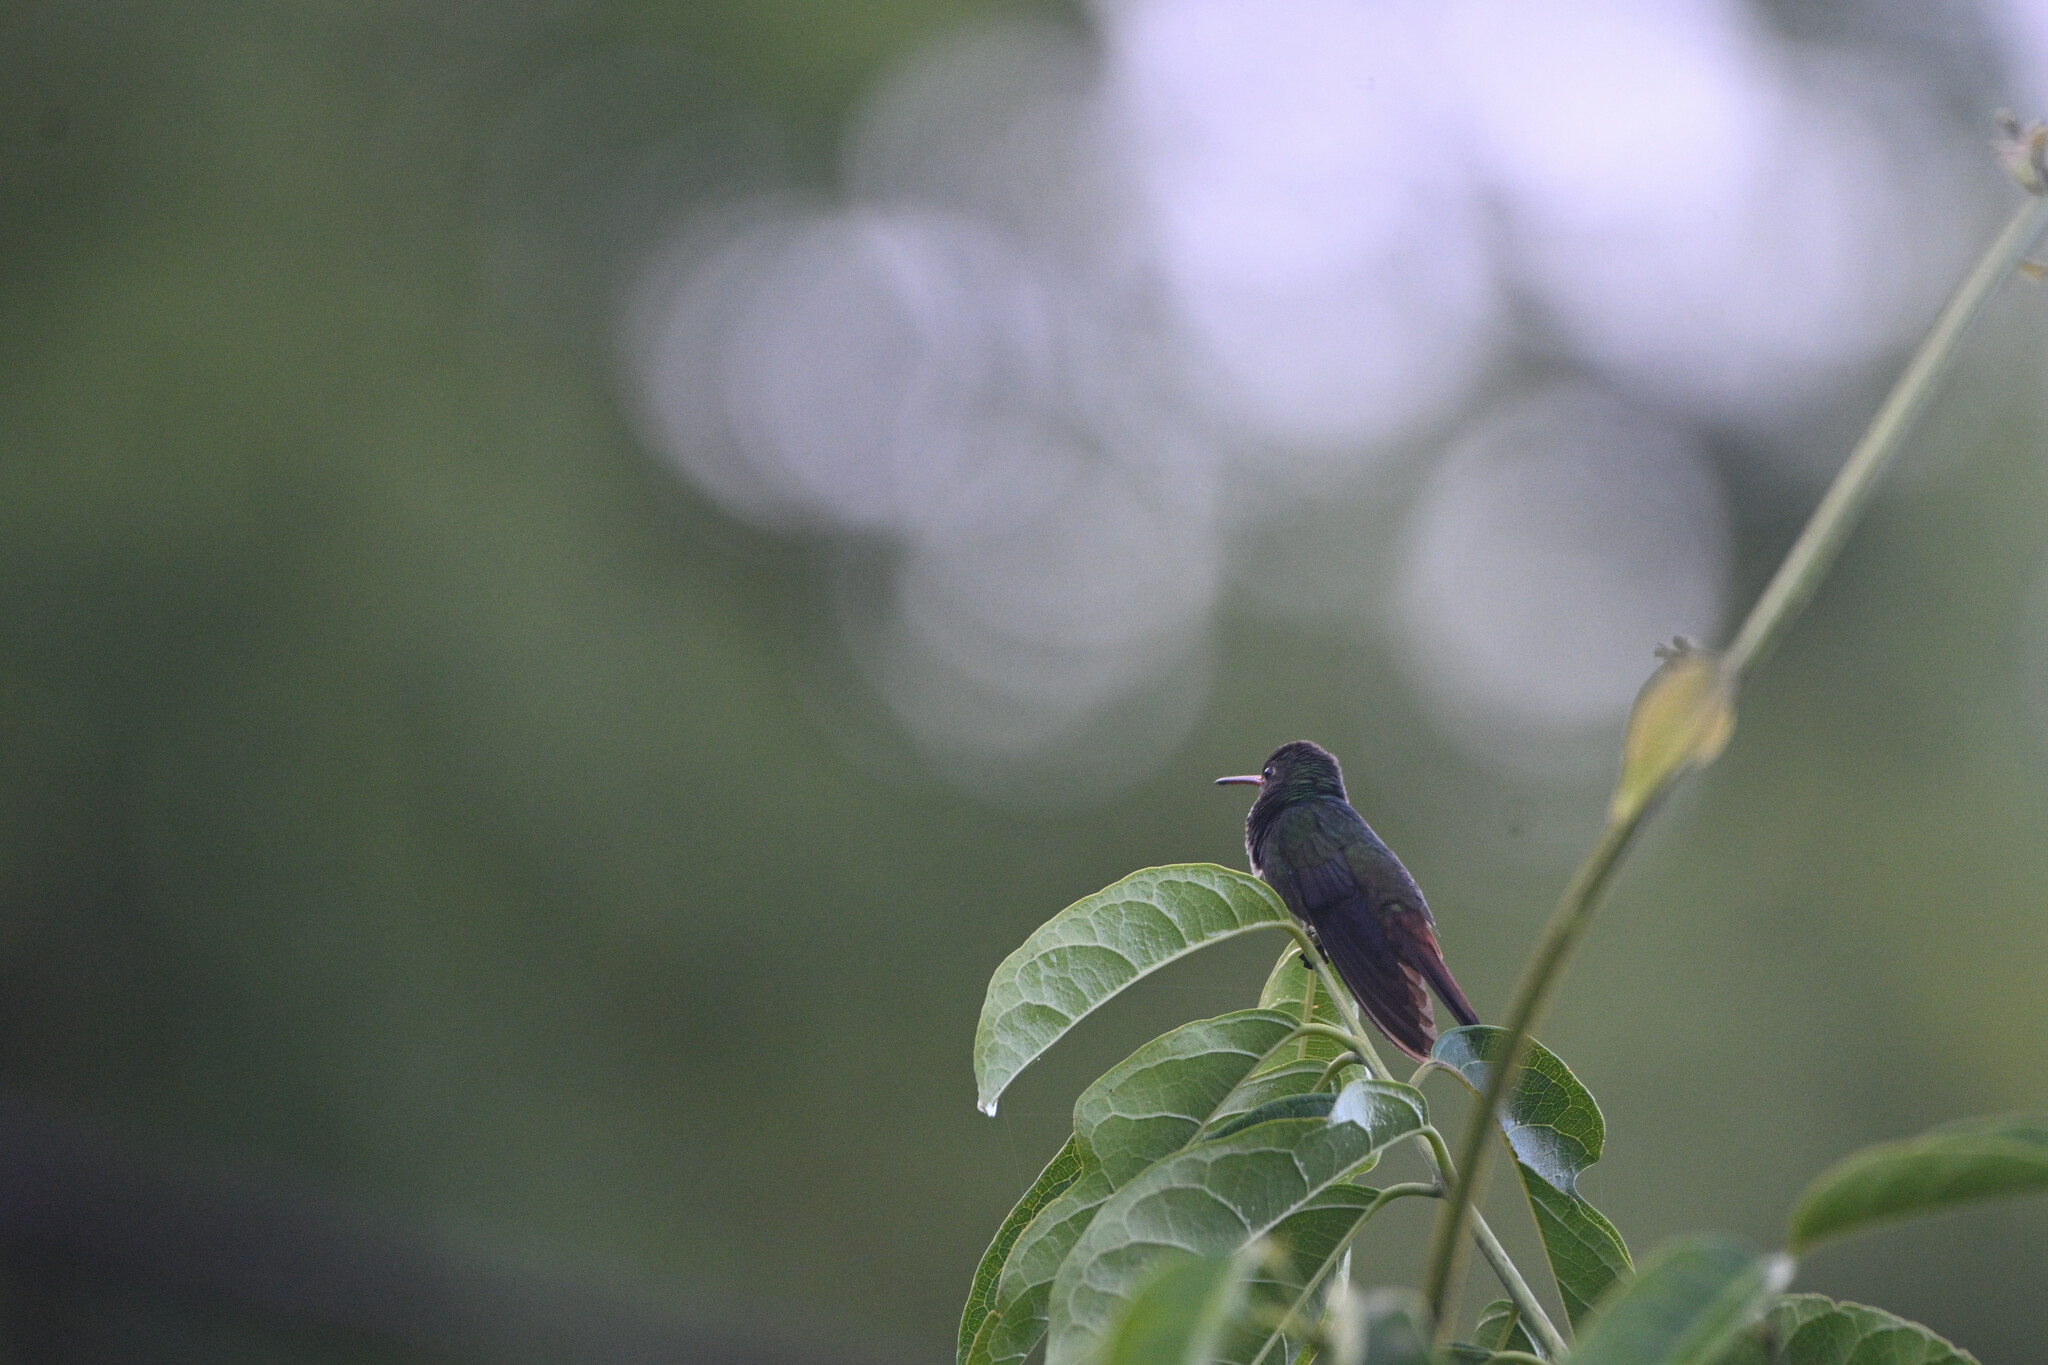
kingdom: Animalia
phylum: Chordata
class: Aves
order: Apodiformes
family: Trochilidae
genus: Amazilia
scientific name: Amazilia tzacatl
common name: Rufous-tailed hummingbird
